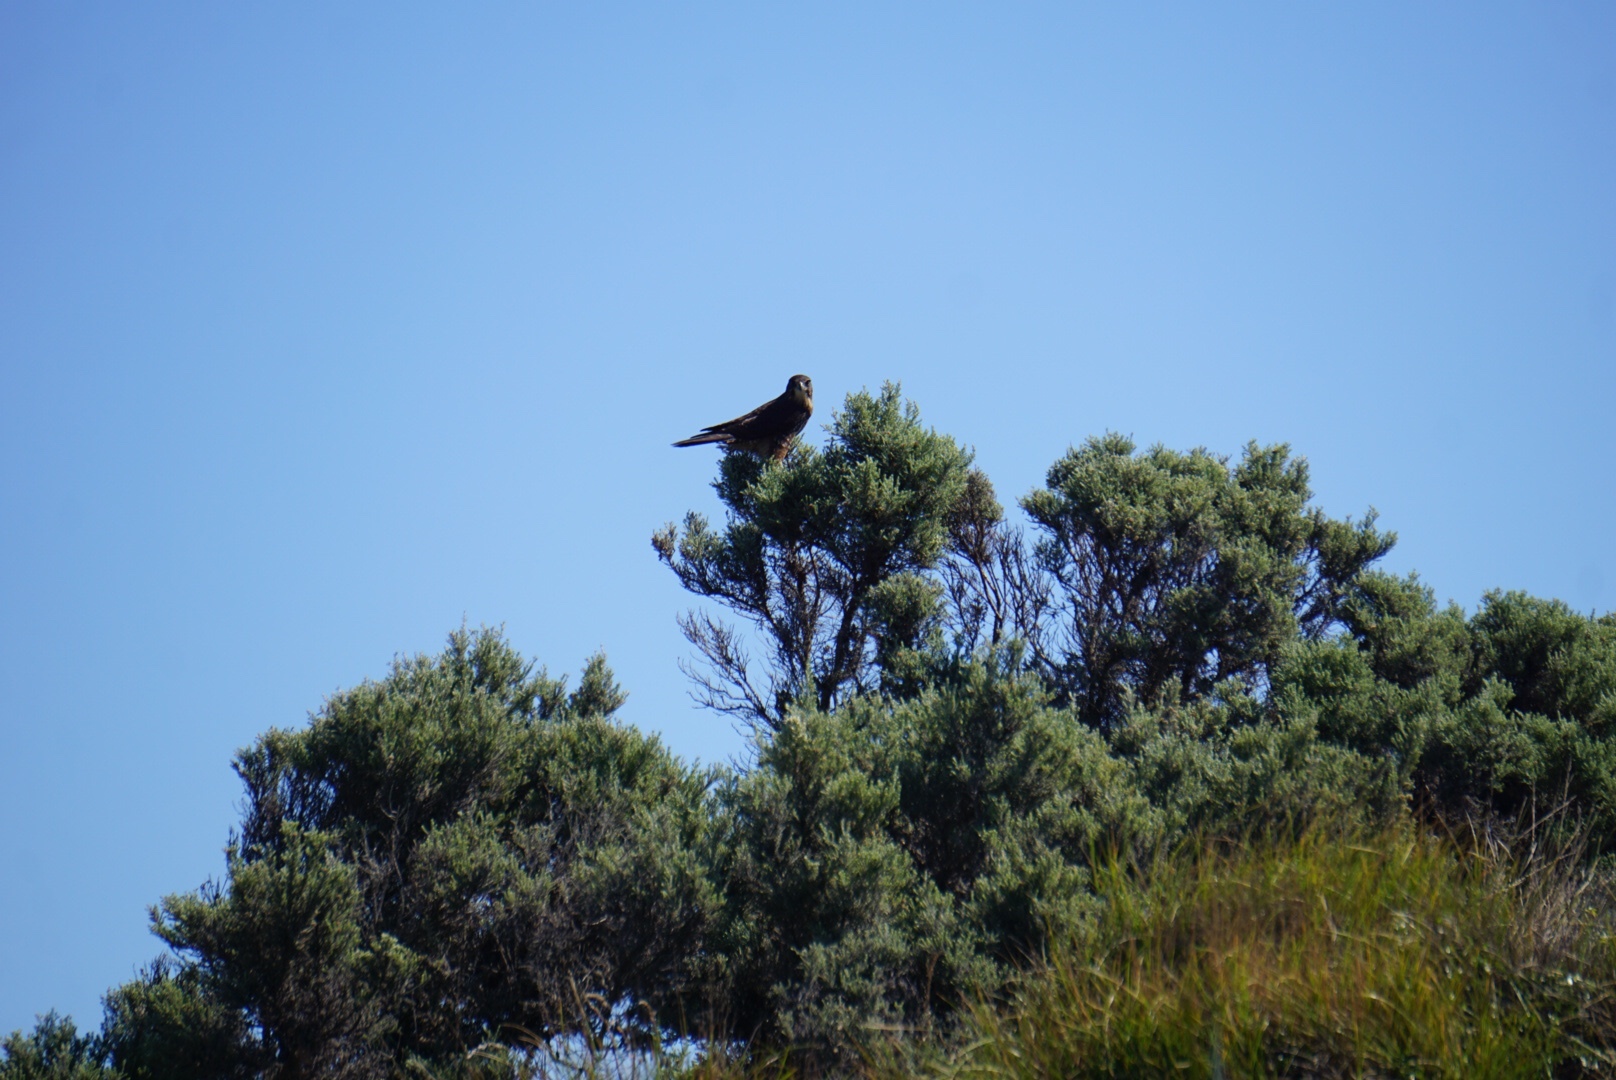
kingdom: Animalia
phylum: Chordata
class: Aves
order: Falconiformes
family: Falconidae
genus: Falco
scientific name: Falco novaeseelandiae
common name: New zealand falcon
